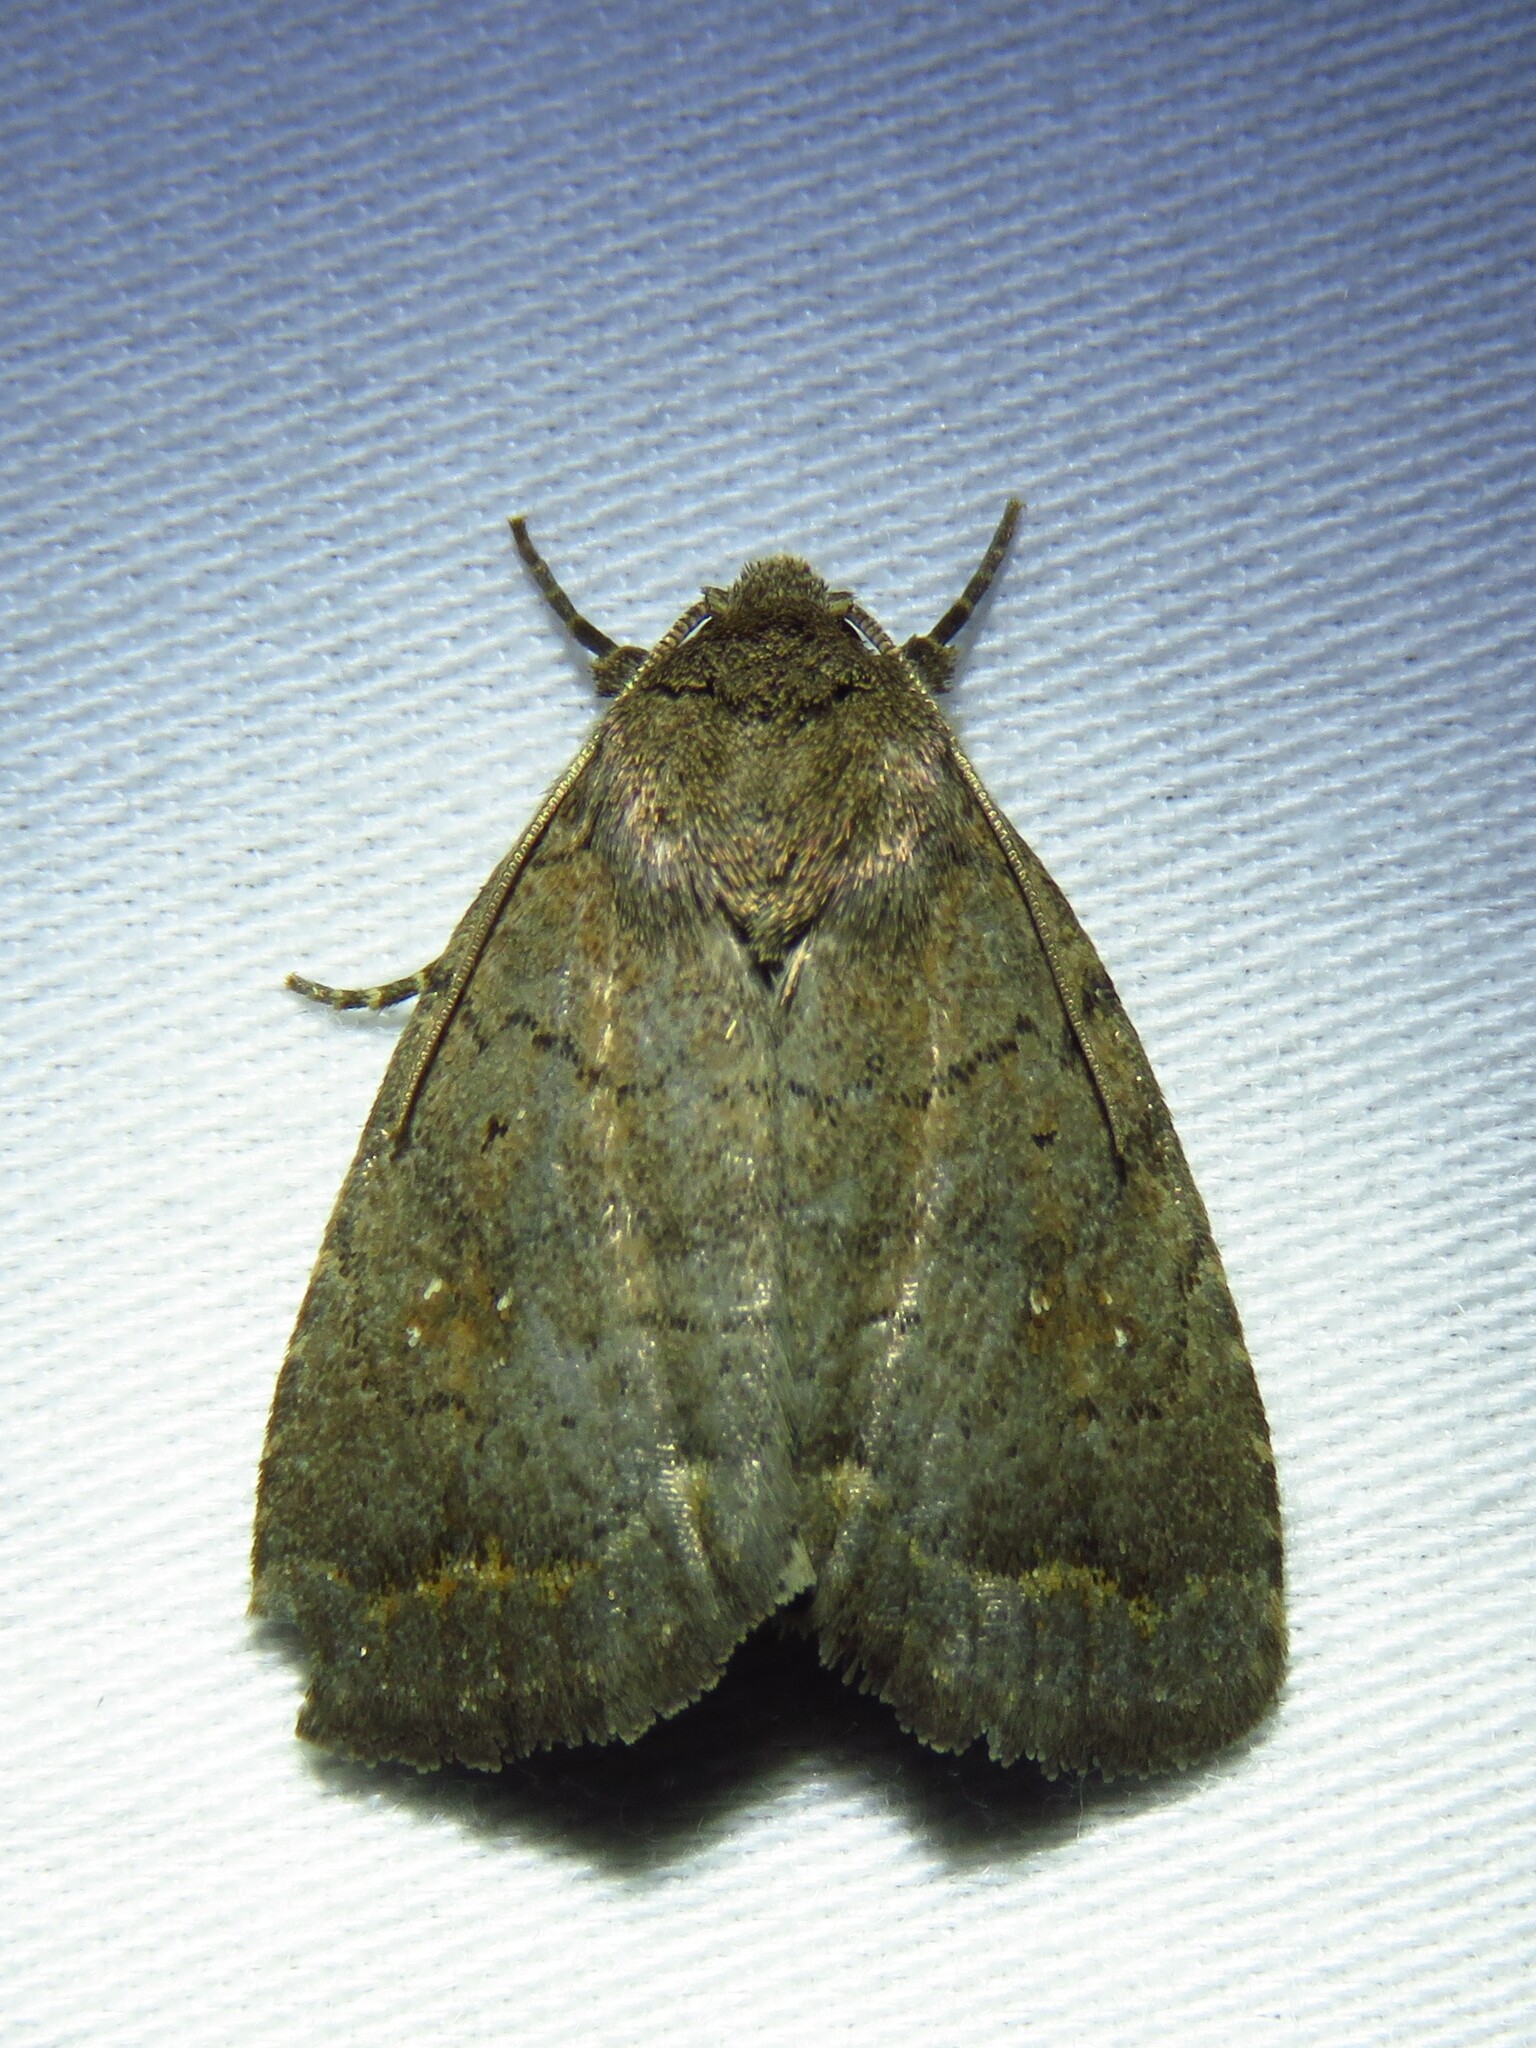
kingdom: Animalia
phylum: Arthropoda
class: Insecta
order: Lepidoptera
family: Noctuidae
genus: Athetis
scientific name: Athetis tarda
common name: Slowpoke moth
